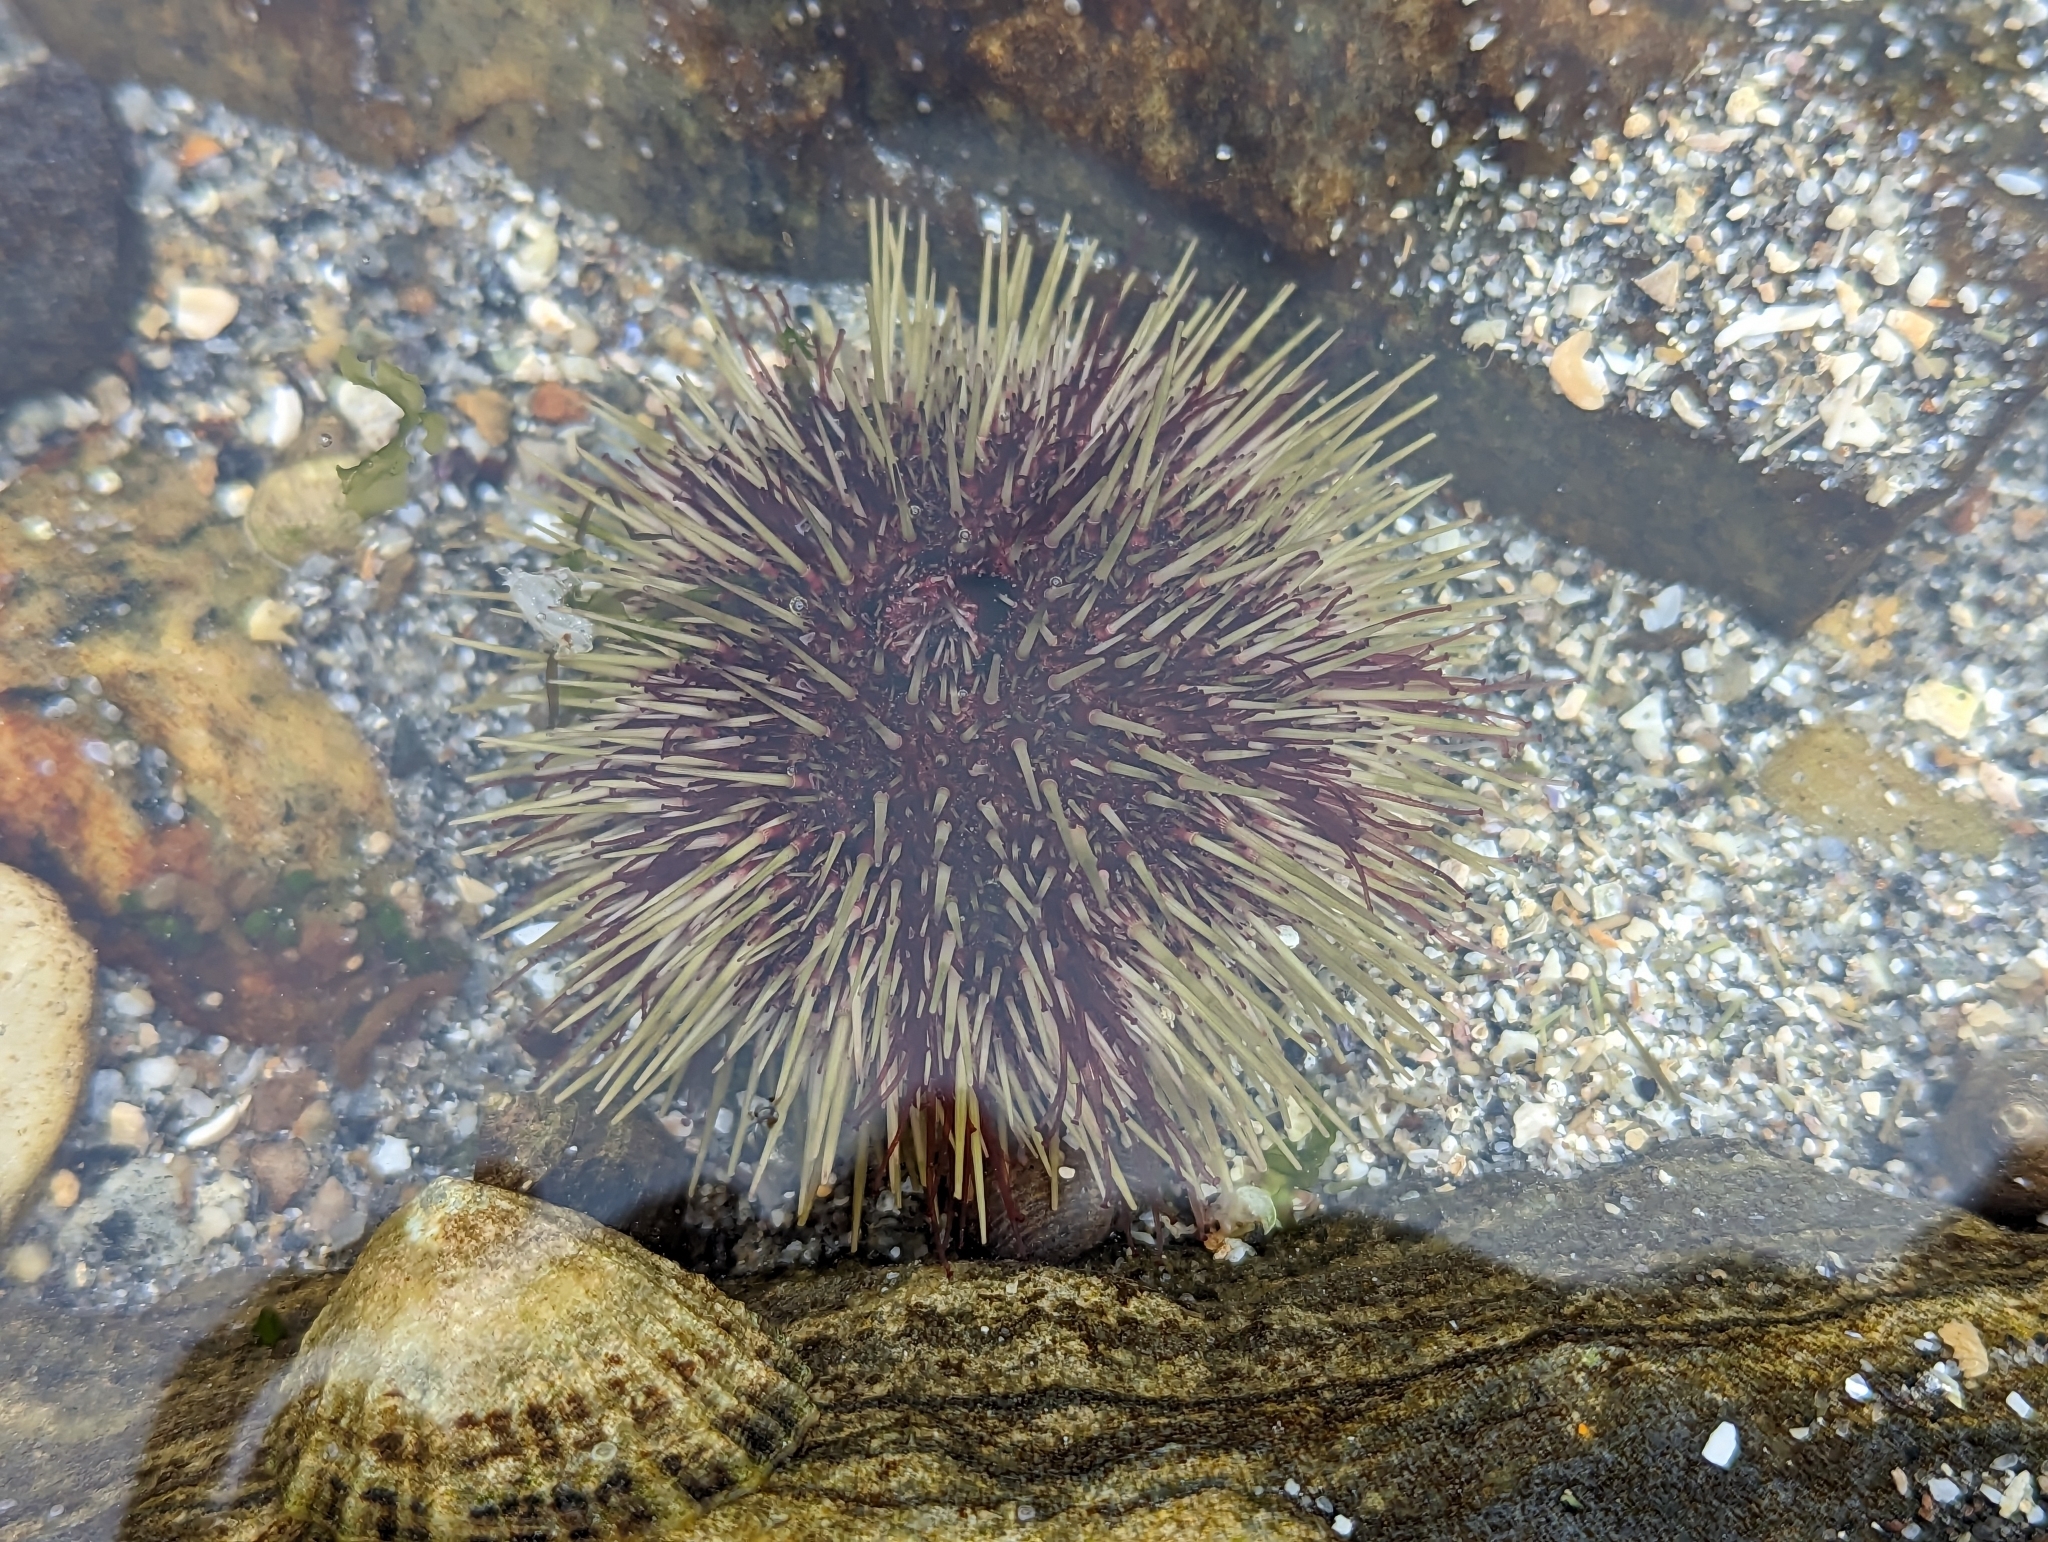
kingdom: Animalia
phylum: Echinodermata
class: Echinoidea
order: Camarodonta
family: Strongylocentrotidae
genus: Strongylocentrotus
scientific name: Strongylocentrotus droebachiensis
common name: Northern sea urchin
